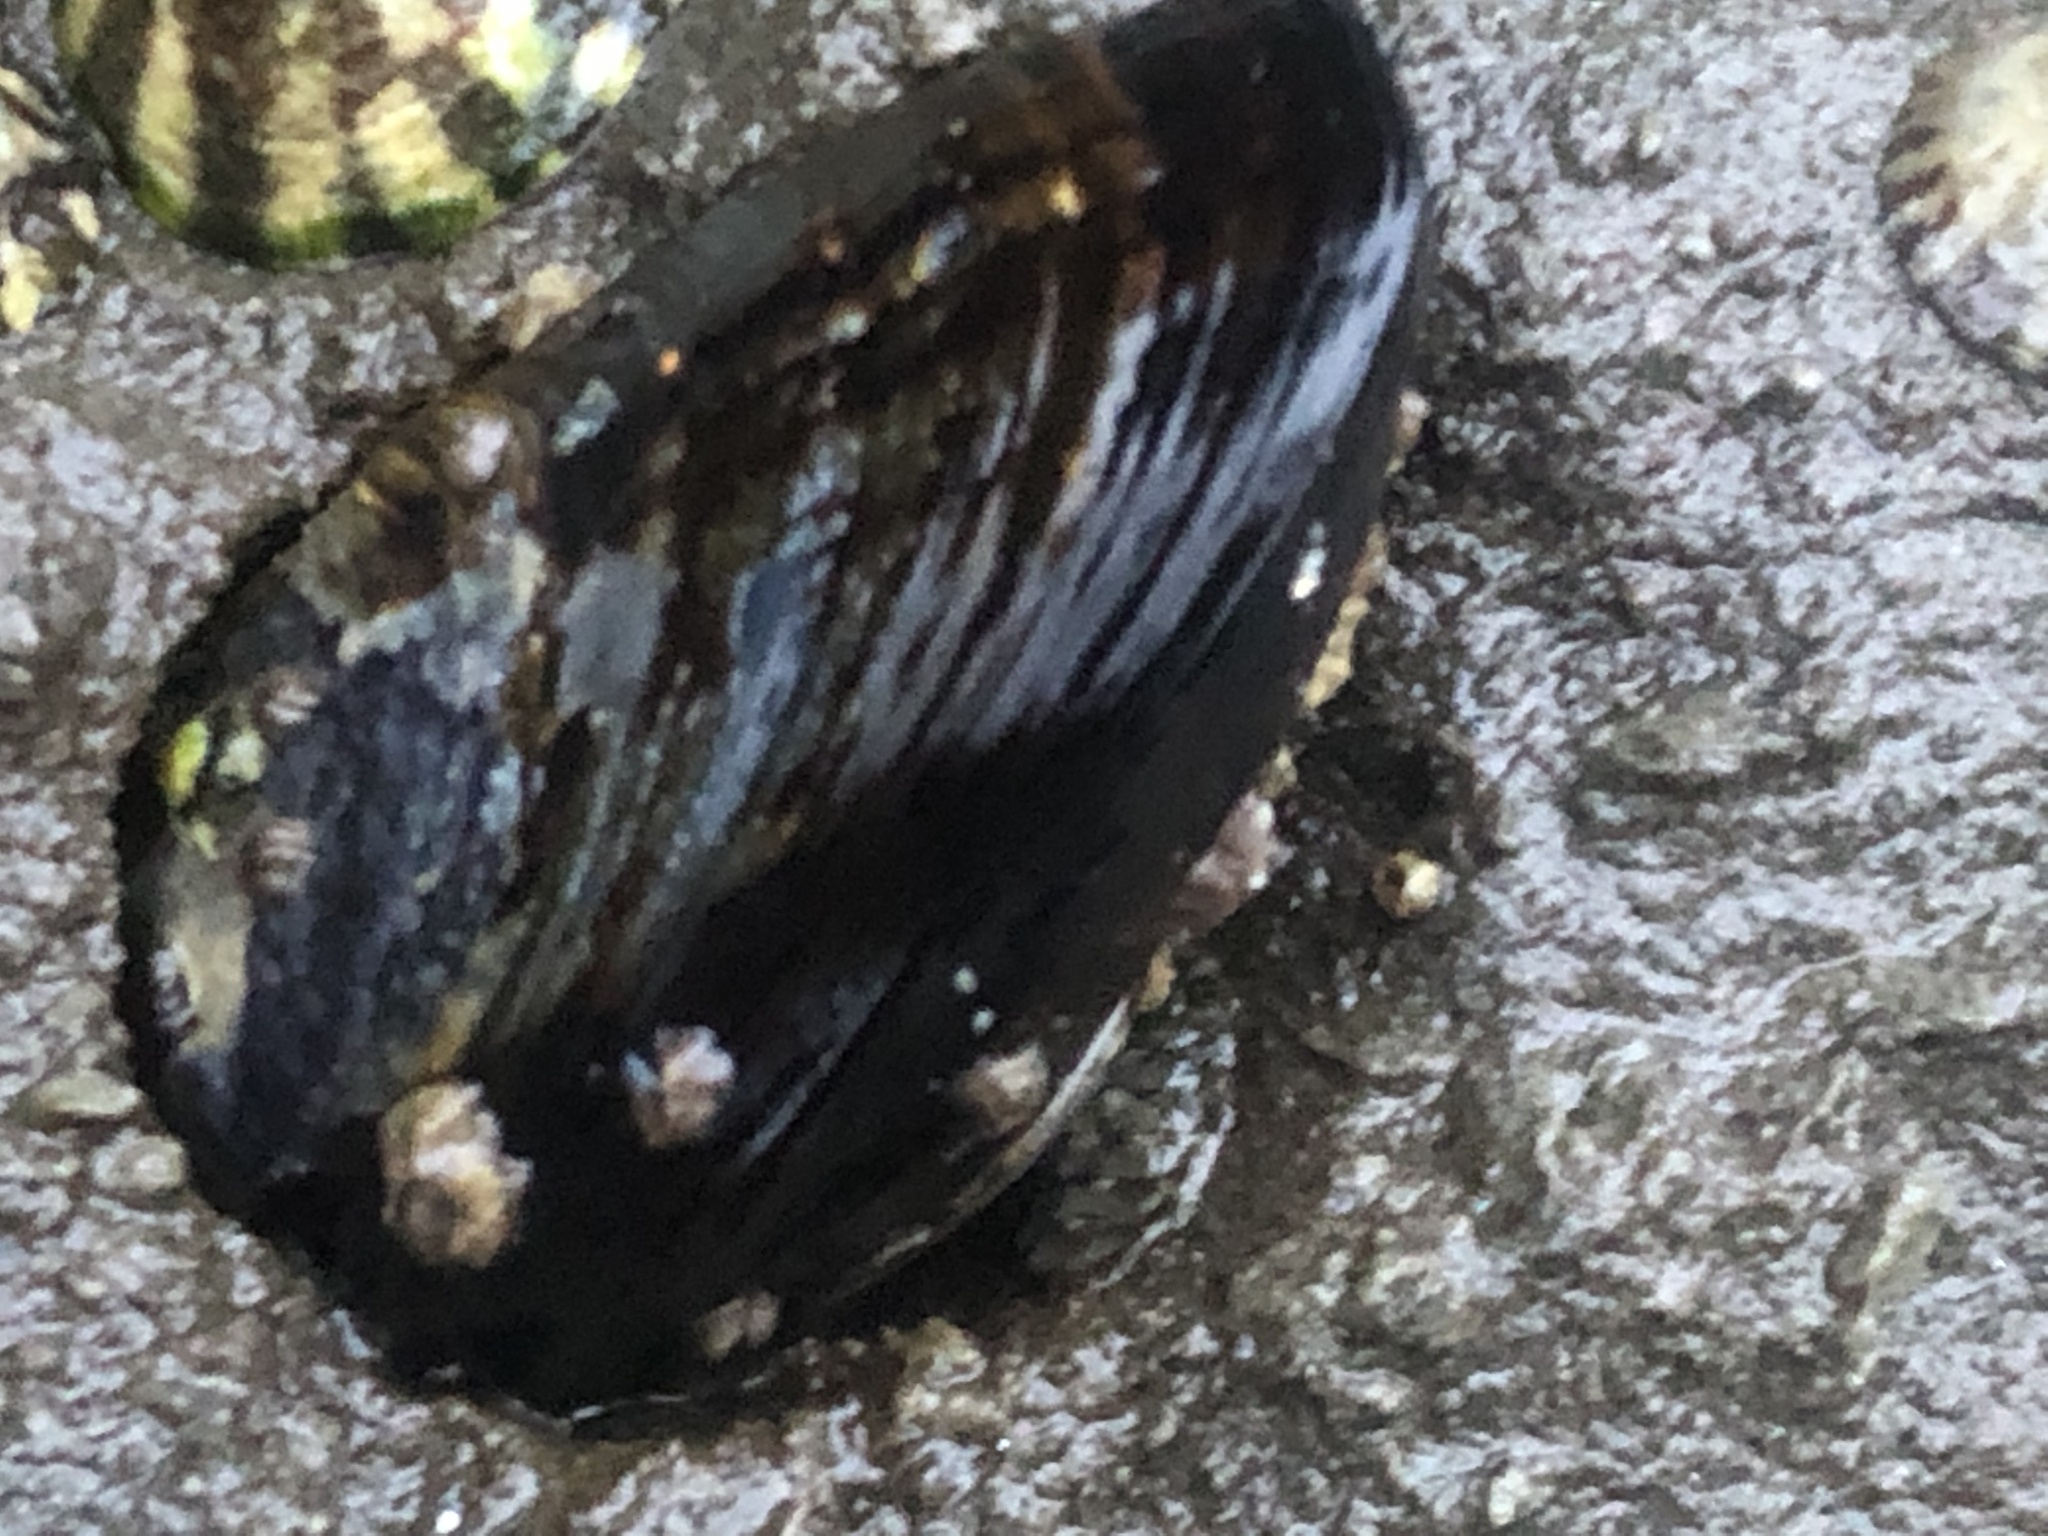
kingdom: Animalia
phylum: Mollusca
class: Bivalvia
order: Mytilida
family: Mytilidae
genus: Mytilus
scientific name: Mytilus californianus
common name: California mussel
